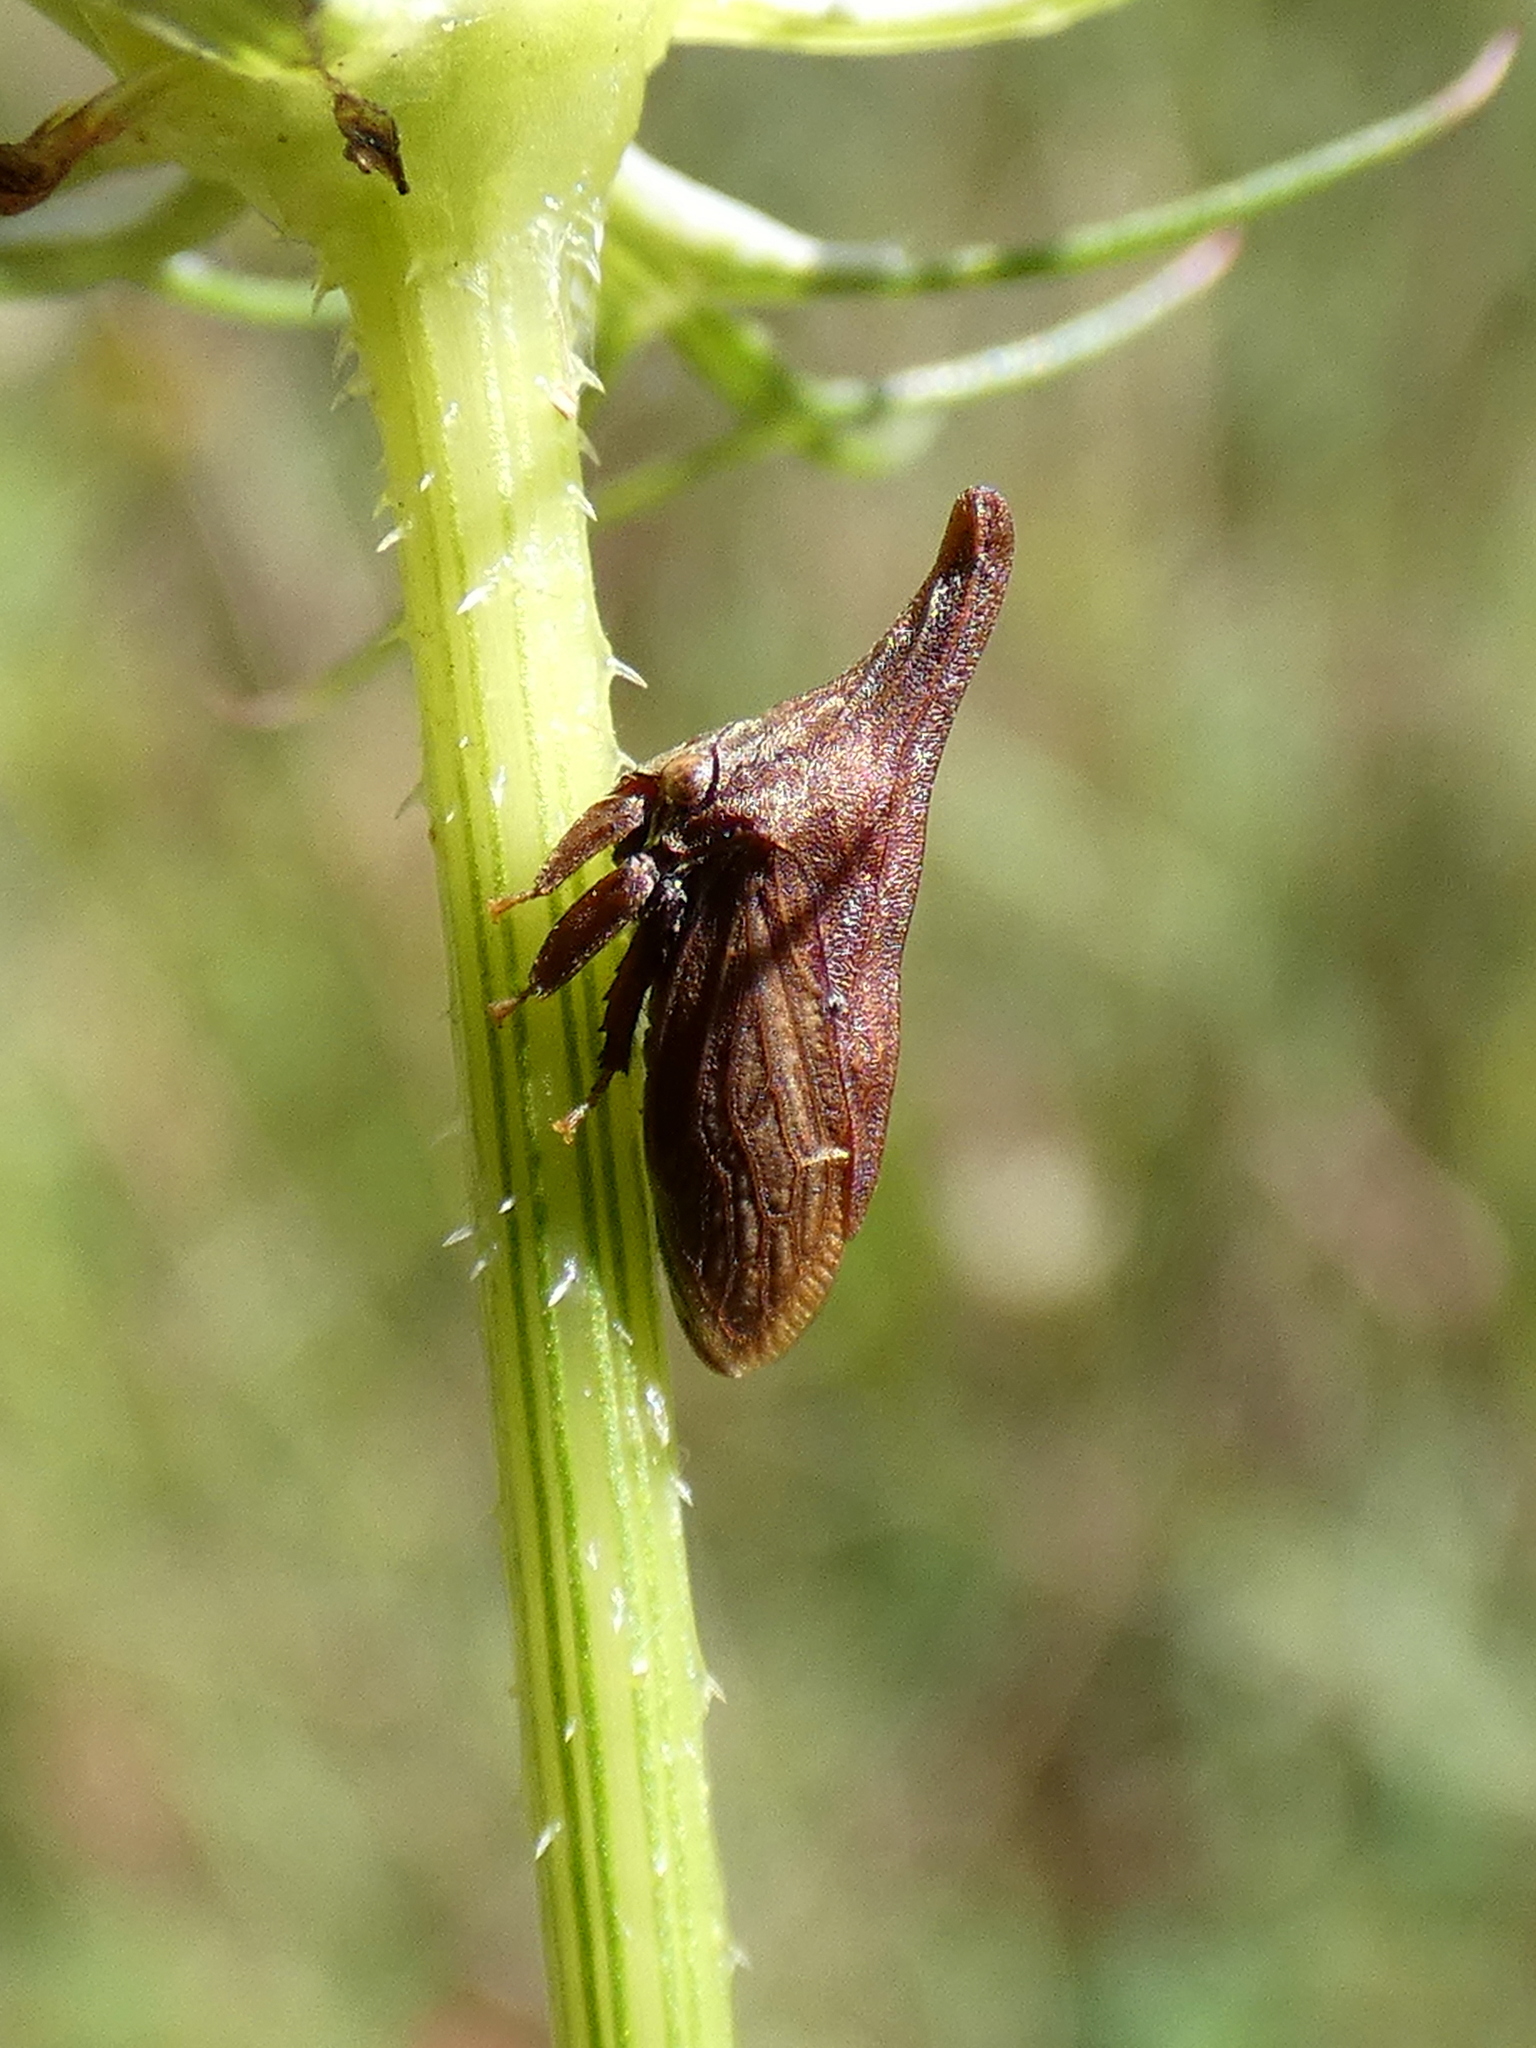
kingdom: Animalia
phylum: Arthropoda
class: Insecta
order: Hemiptera
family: Membracidae
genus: Enchenopa
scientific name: Enchenopa latipes
